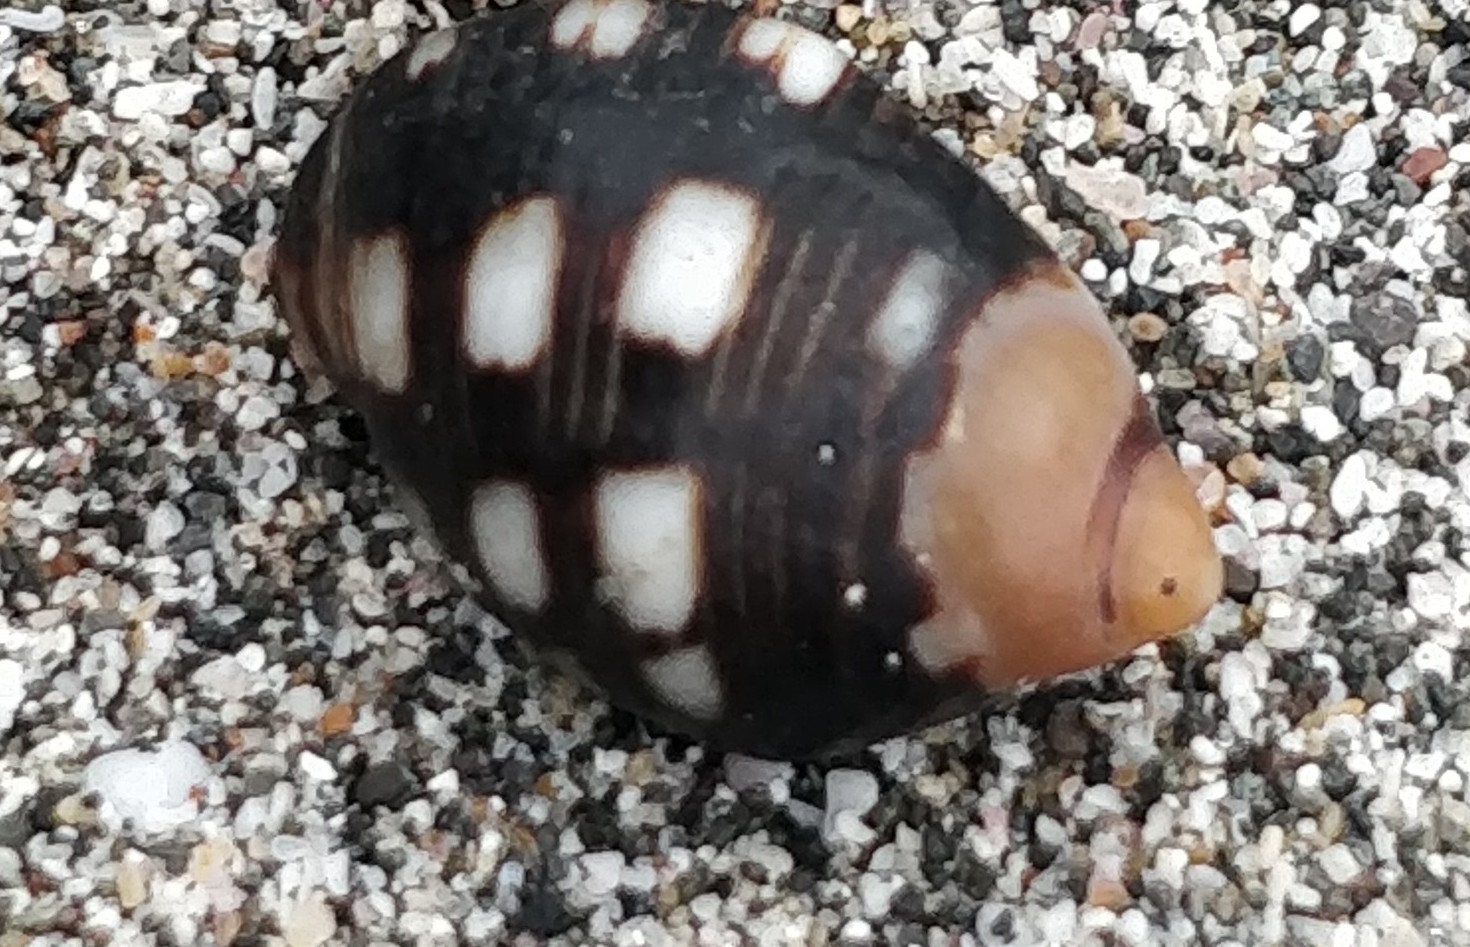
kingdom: Animalia
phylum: Mollusca
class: Gastropoda
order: Neogastropoda
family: Muricidae
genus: Acanthais
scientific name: Acanthais brevidentata
